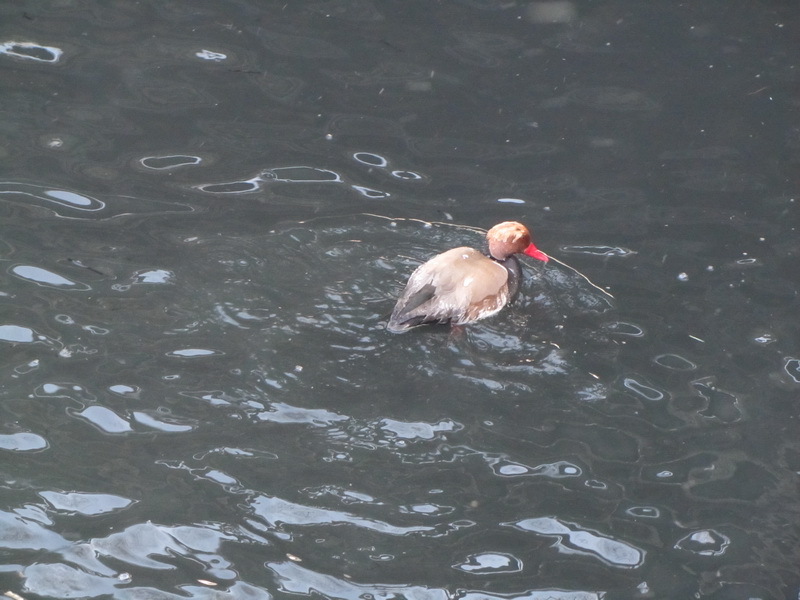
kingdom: Animalia
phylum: Chordata
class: Aves
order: Anseriformes
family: Anatidae
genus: Netta
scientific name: Netta rufina
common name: Red-crested pochard
